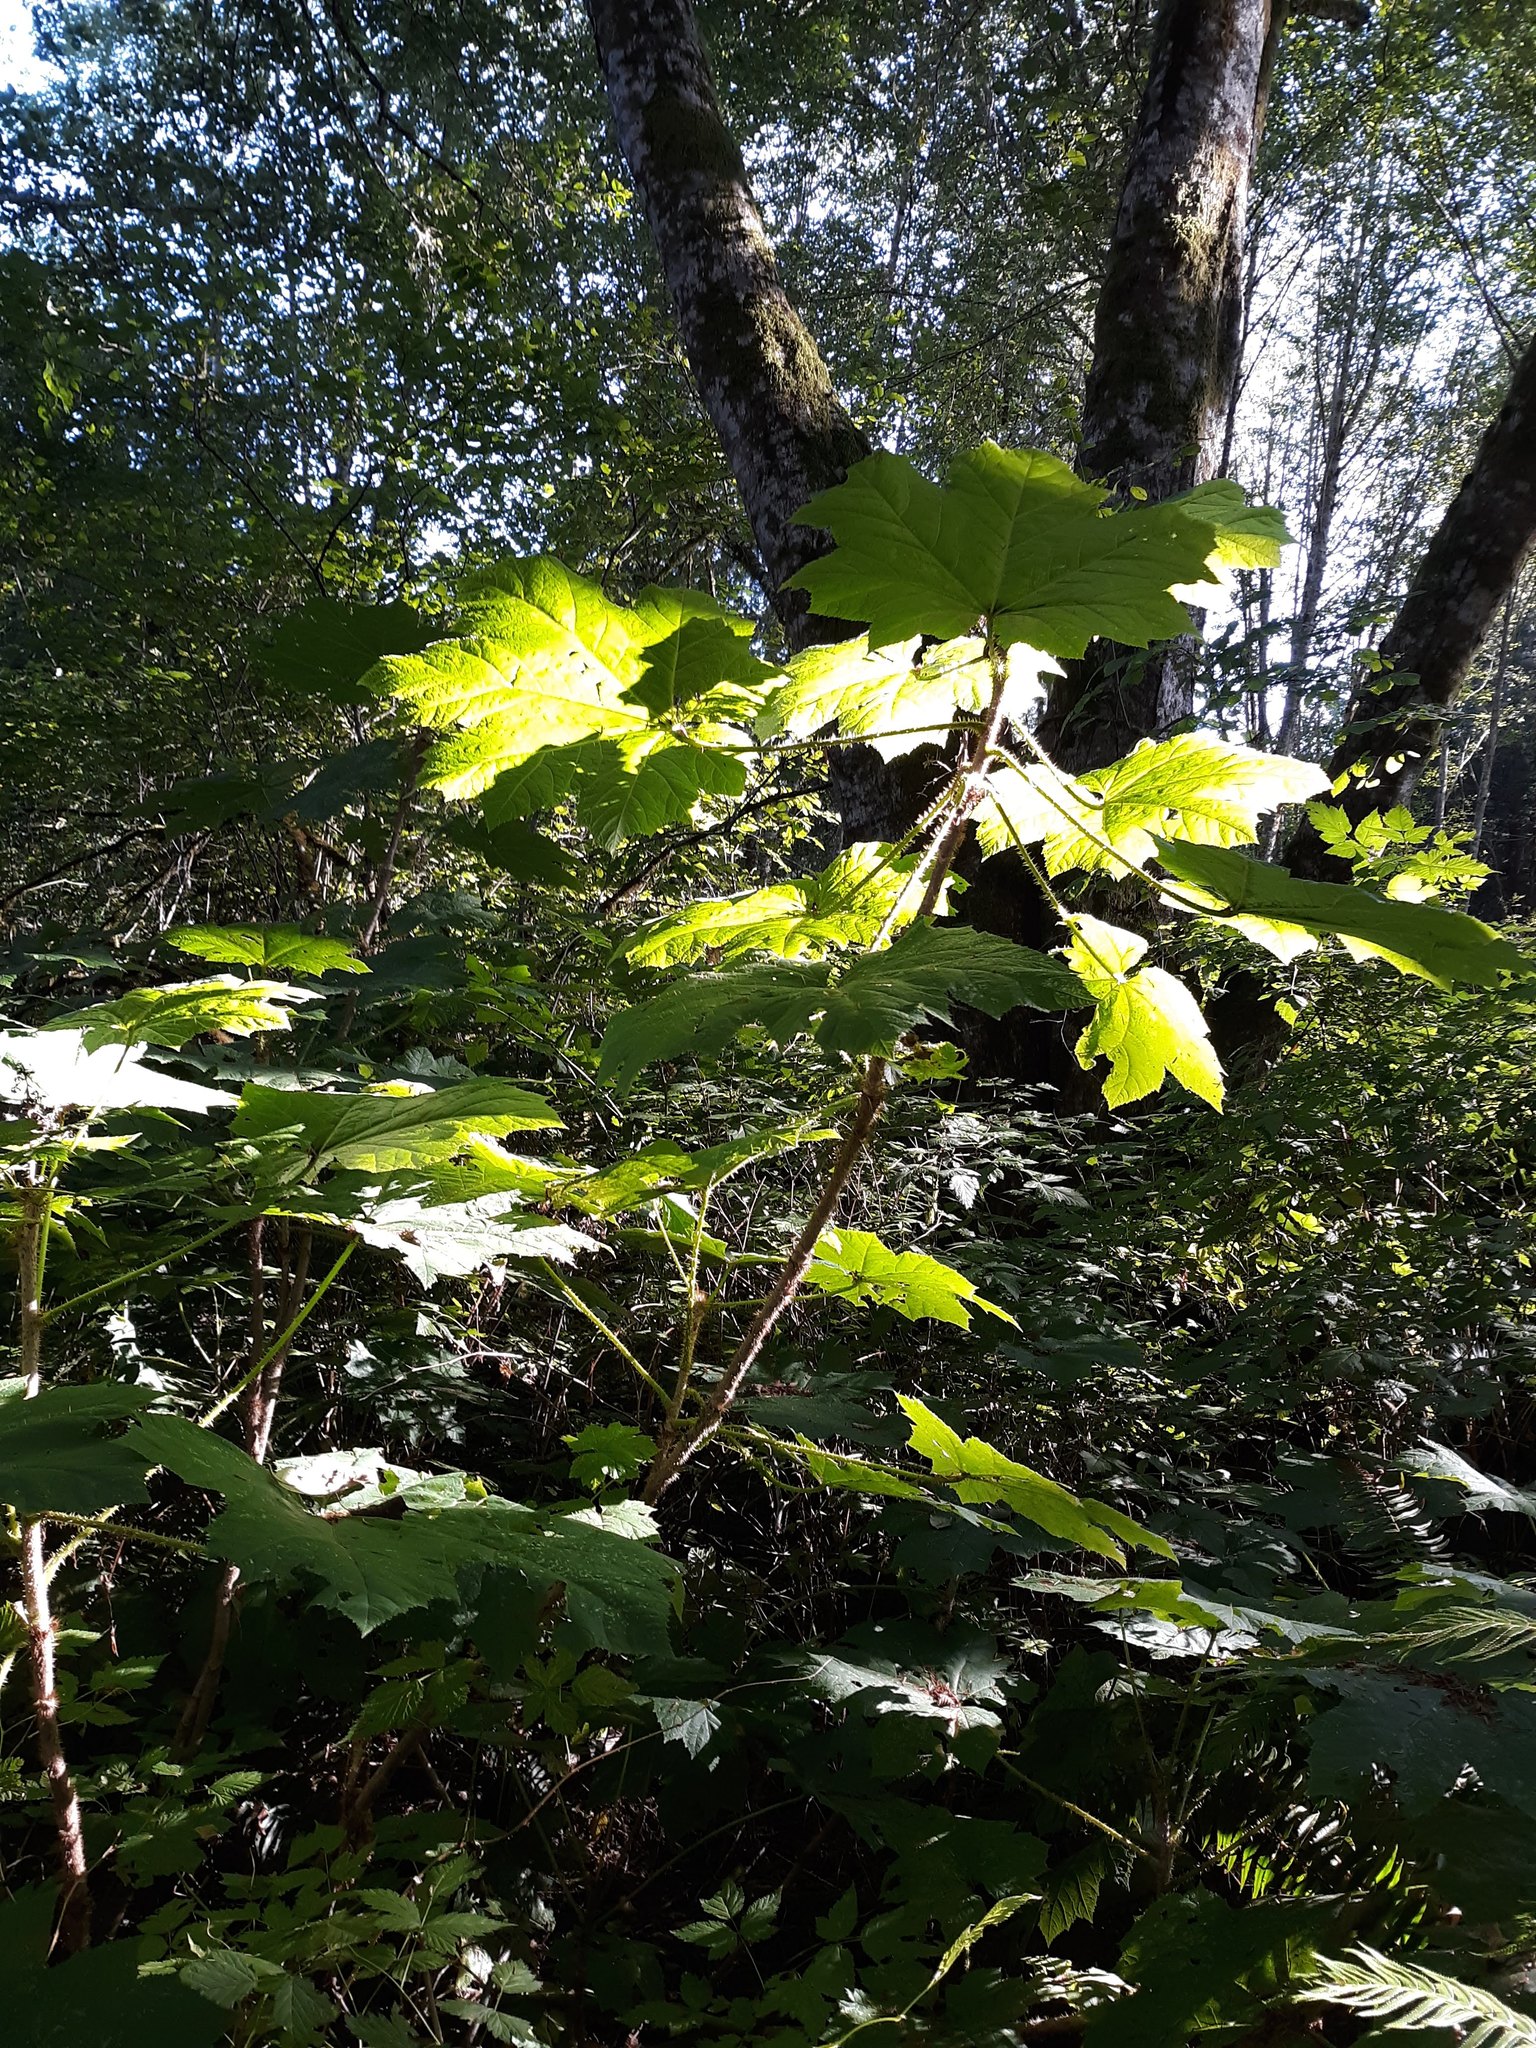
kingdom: Plantae
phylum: Tracheophyta
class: Magnoliopsida
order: Apiales
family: Araliaceae
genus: Oplopanax
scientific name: Oplopanax horridus
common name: Devil's walking-stick
